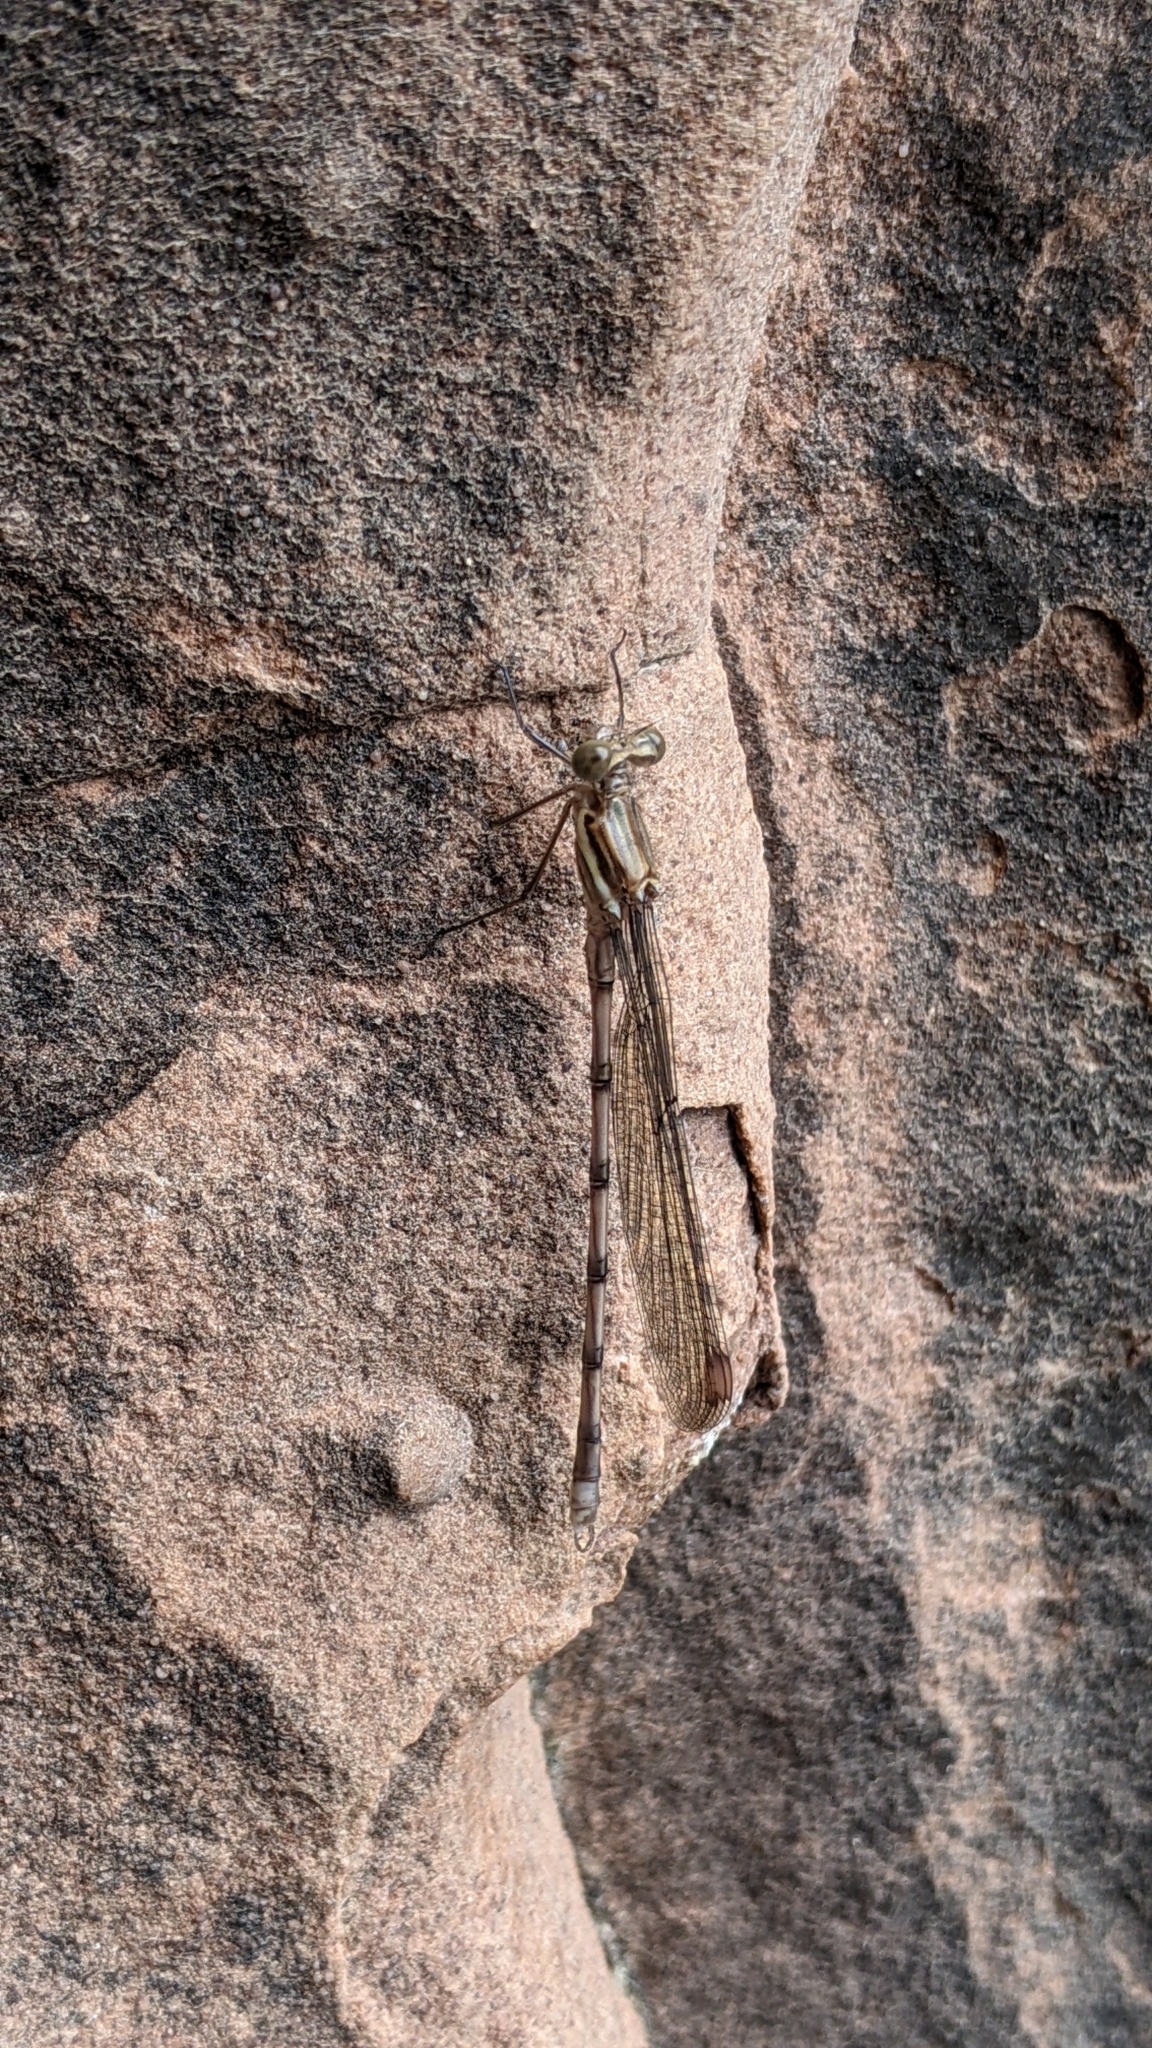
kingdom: Animalia
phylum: Arthropoda
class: Insecta
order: Odonata
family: Lestidae
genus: Archilestes
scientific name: Archilestes grandis
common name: Great spreadwing
